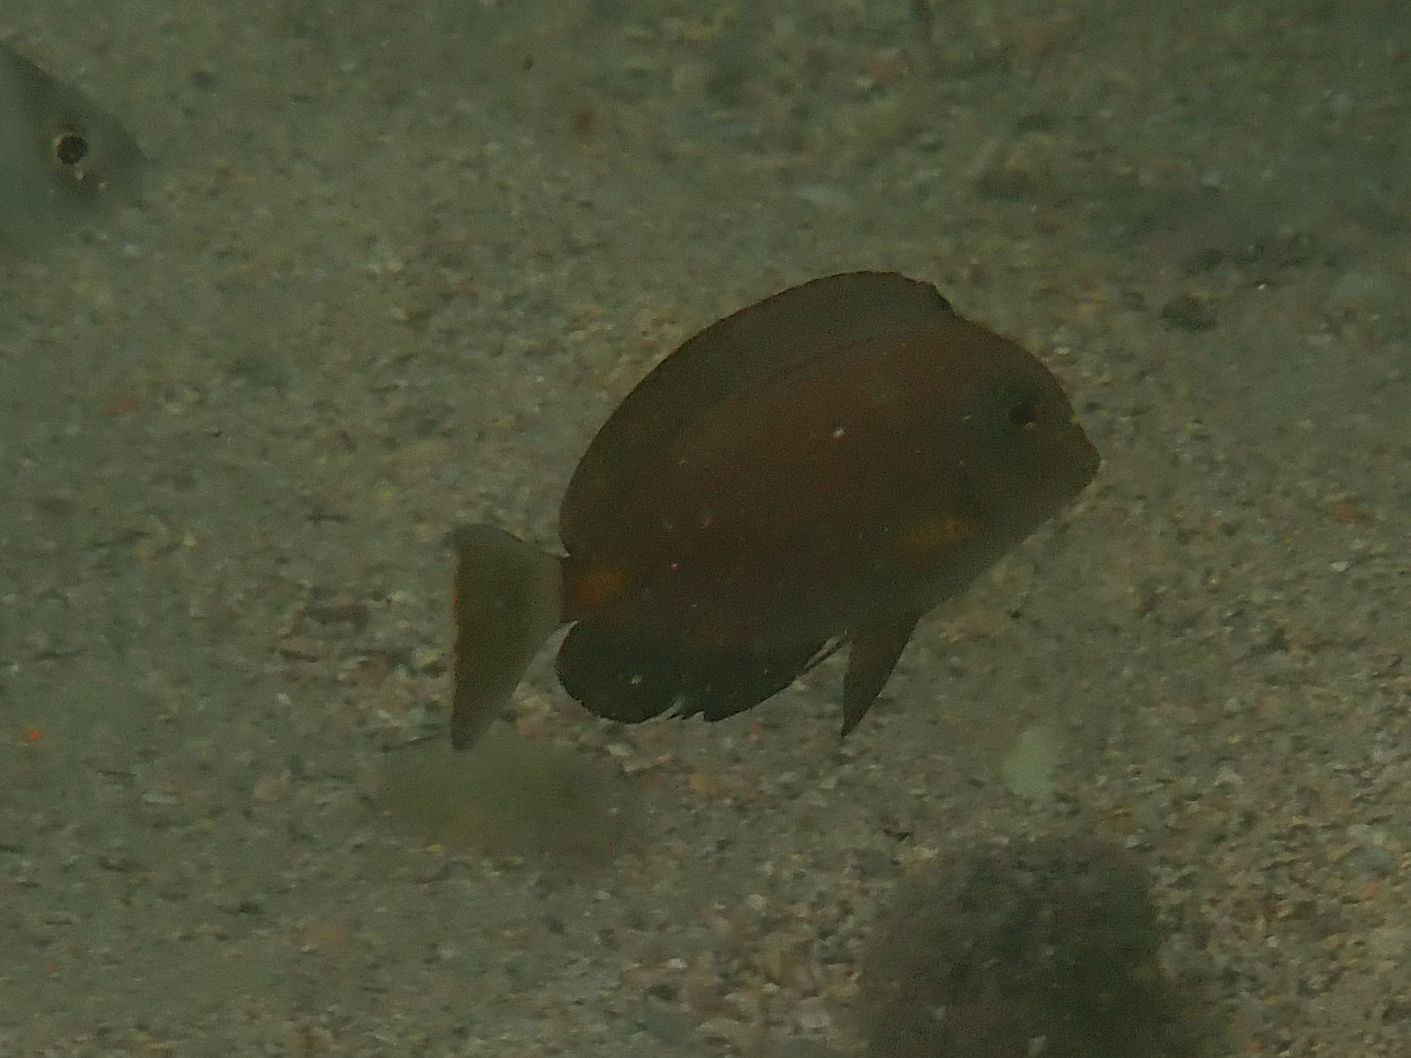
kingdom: Animalia
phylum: Chordata
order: Perciformes
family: Acanthuridae
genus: Acanthurus
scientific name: Acanthurus monroviae
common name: Monrovia surgeonfish
